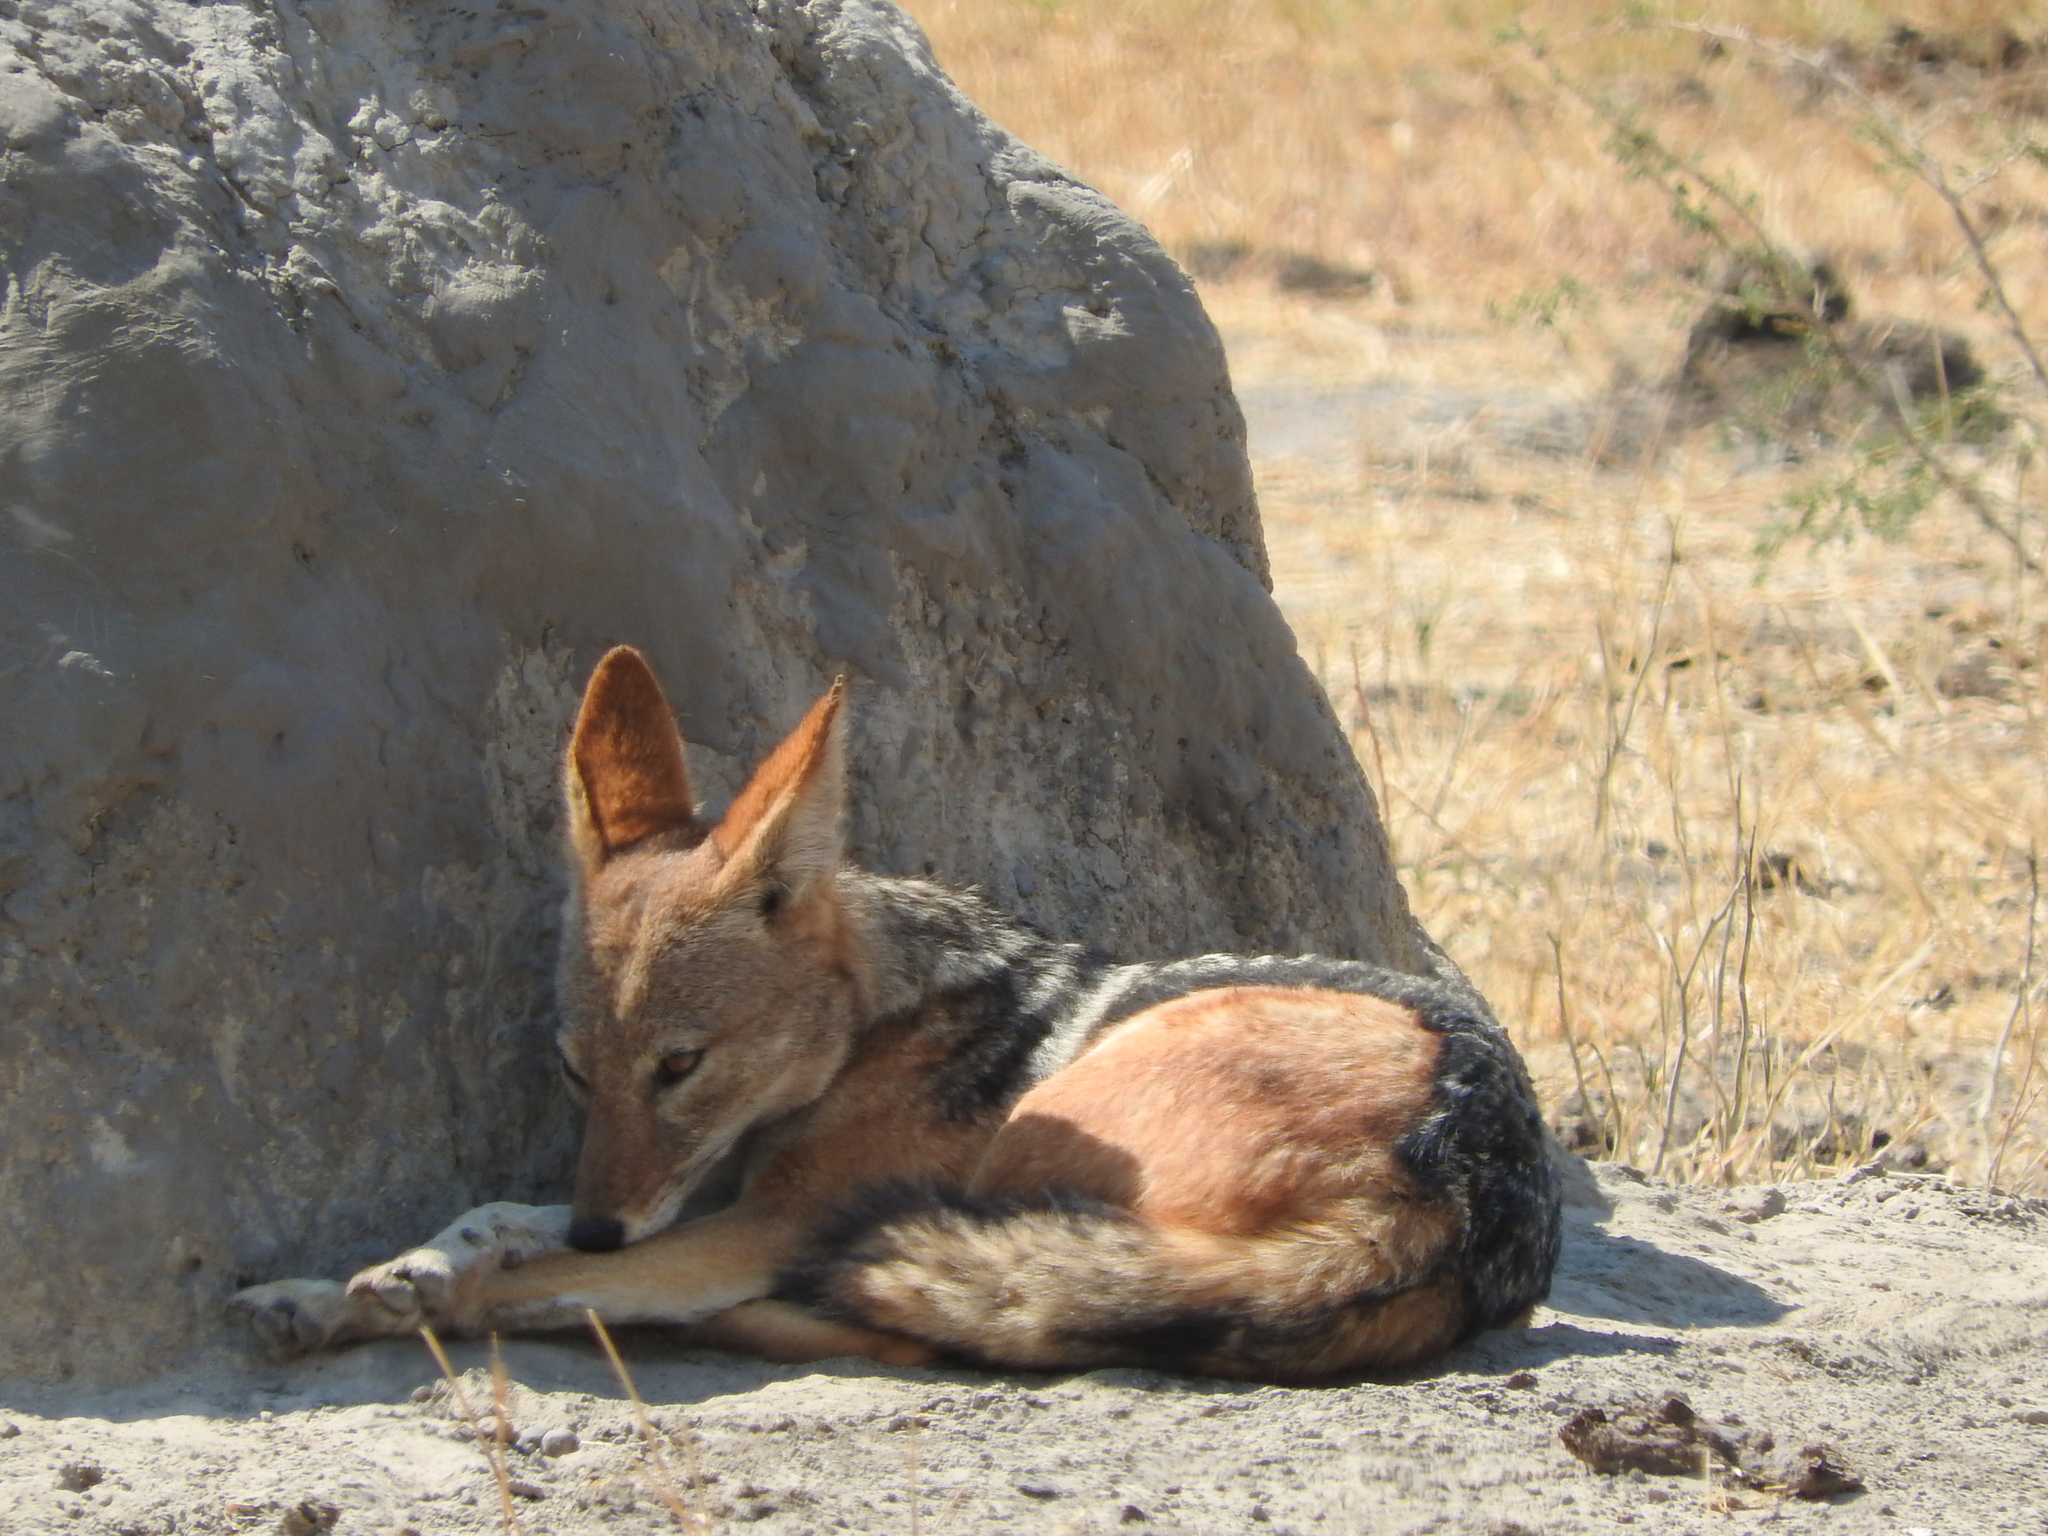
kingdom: Animalia
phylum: Chordata
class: Mammalia
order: Carnivora
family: Canidae
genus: Lupulella
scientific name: Lupulella
